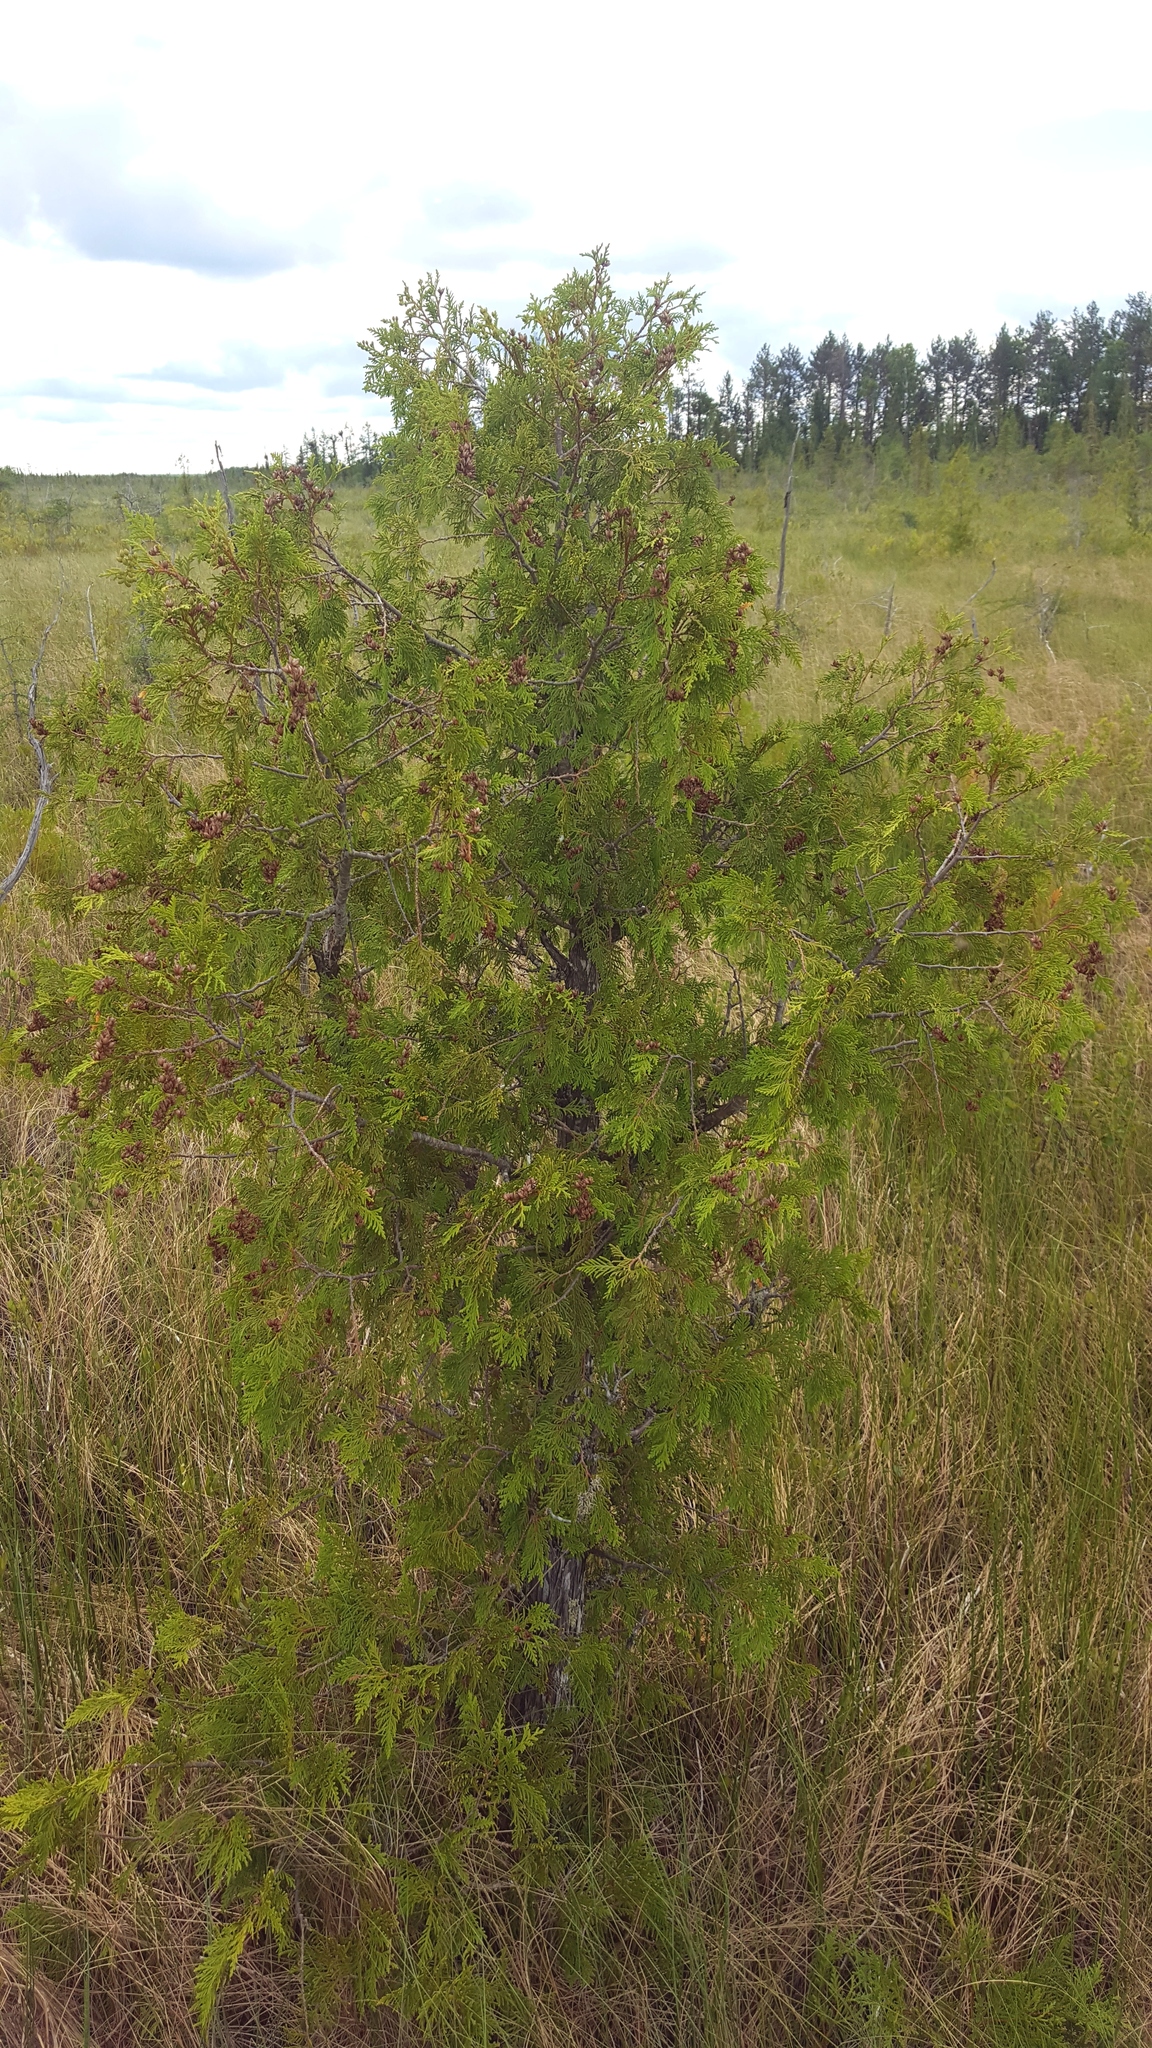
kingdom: Plantae
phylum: Tracheophyta
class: Pinopsida
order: Pinales
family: Cupressaceae
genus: Thuja
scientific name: Thuja occidentalis
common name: Northern white-cedar
